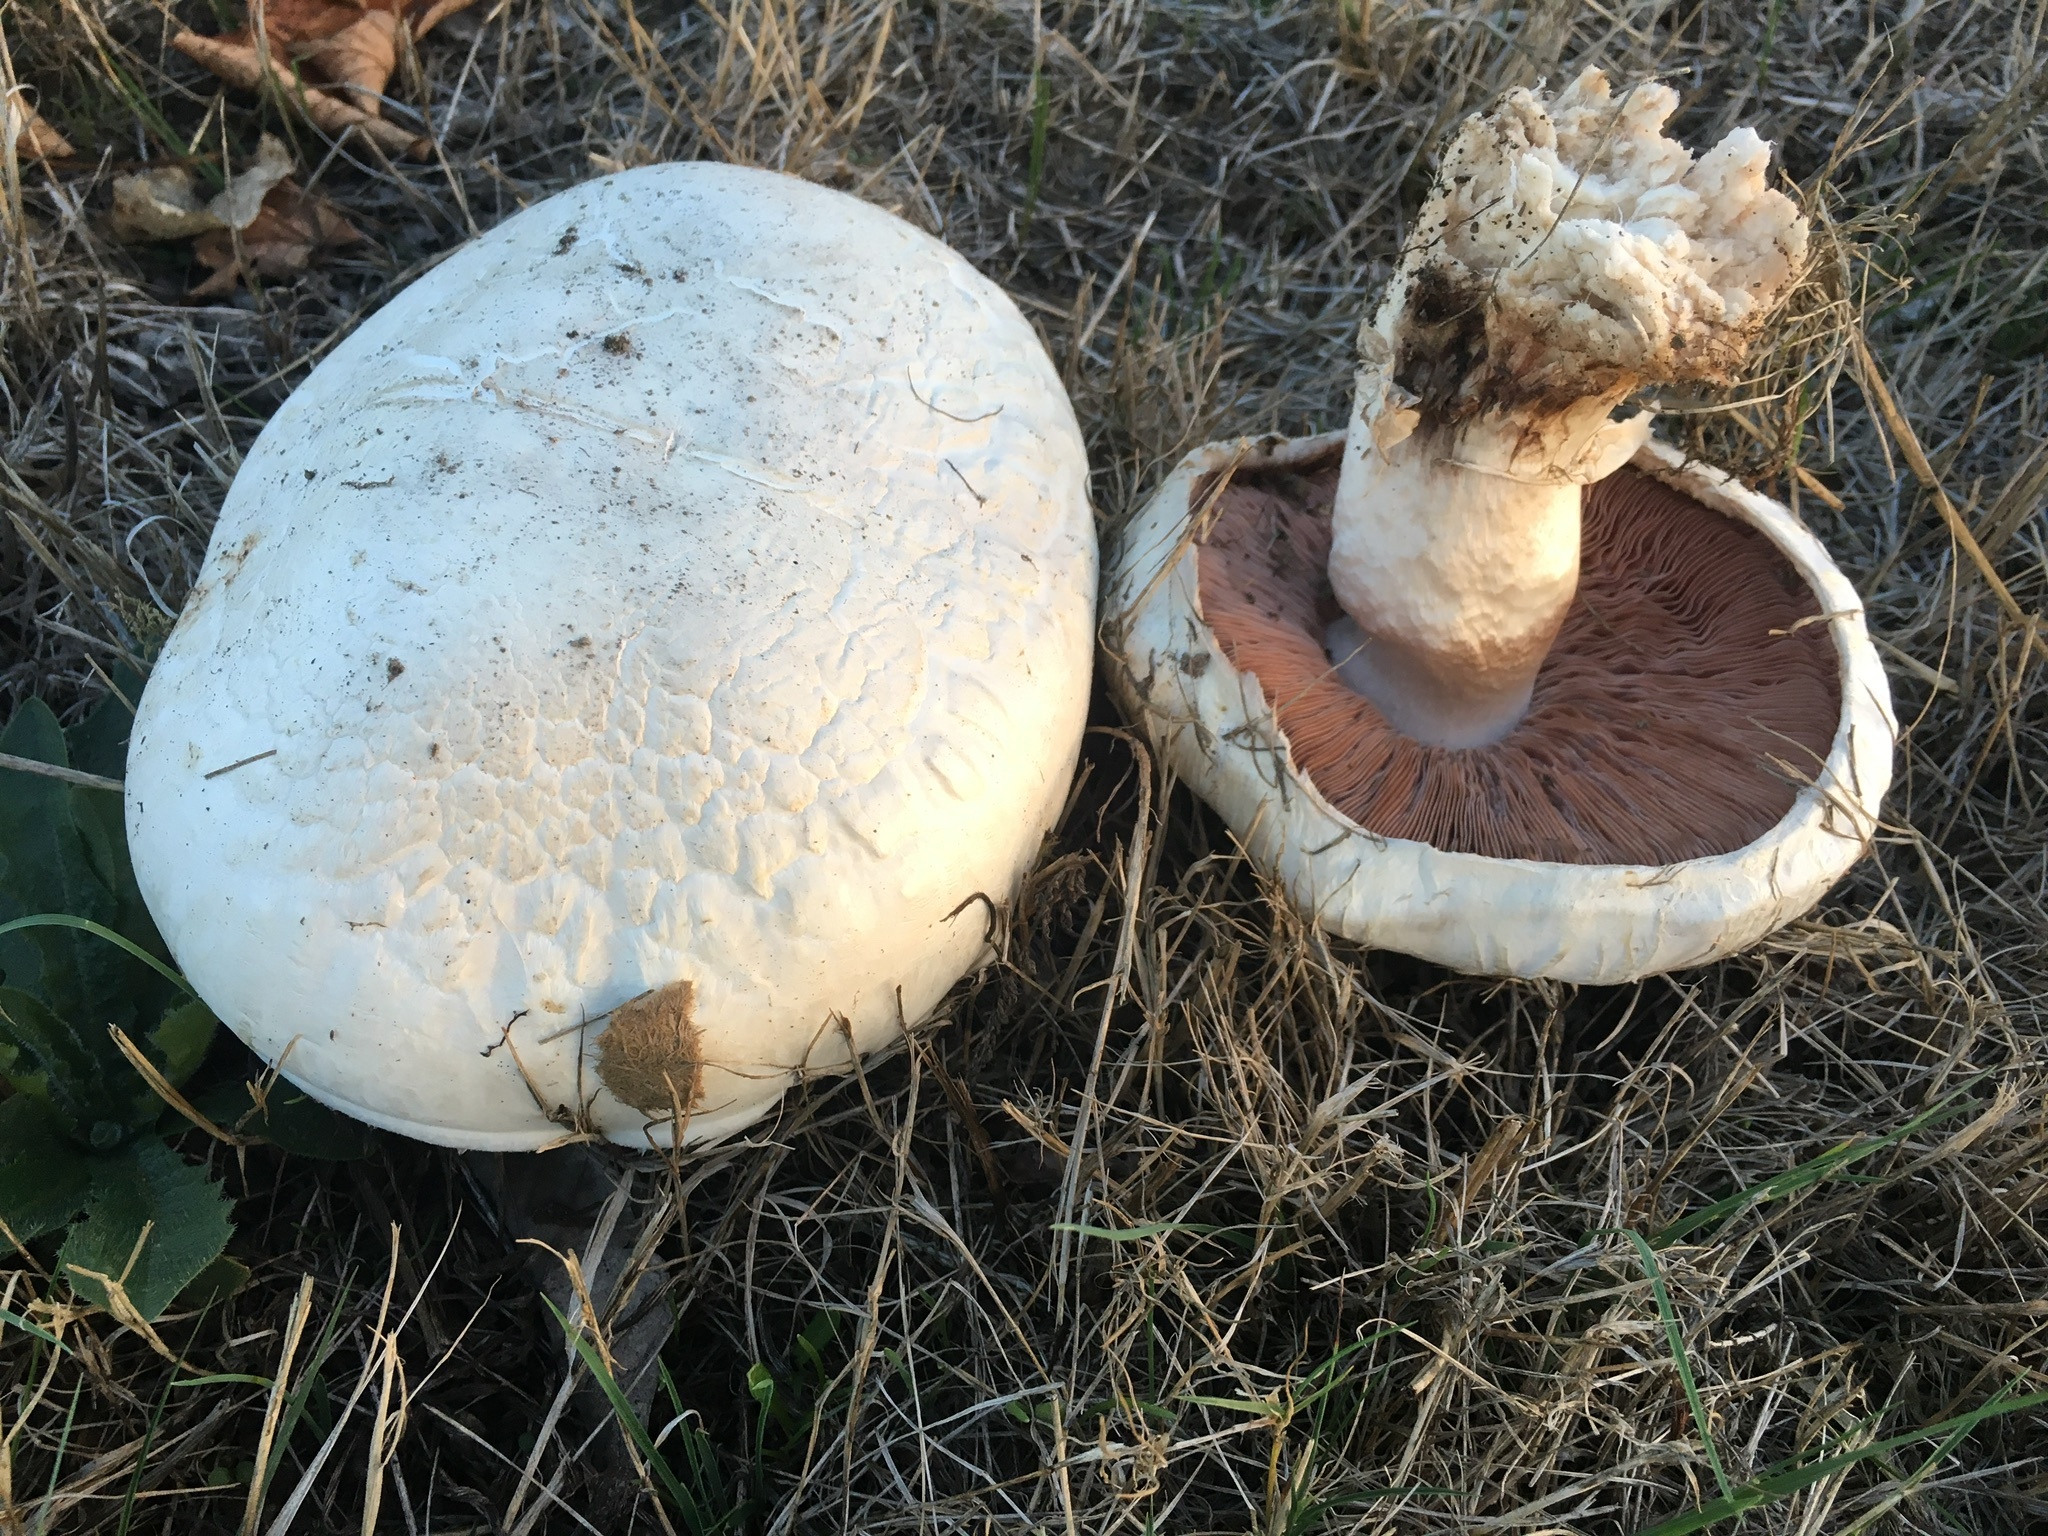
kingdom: Fungi
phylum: Basidiomycota
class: Agaricomycetes
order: Agaricales
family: Agaricaceae
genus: Agaricus
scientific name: Agaricus bernardii
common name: Salty mushroom
